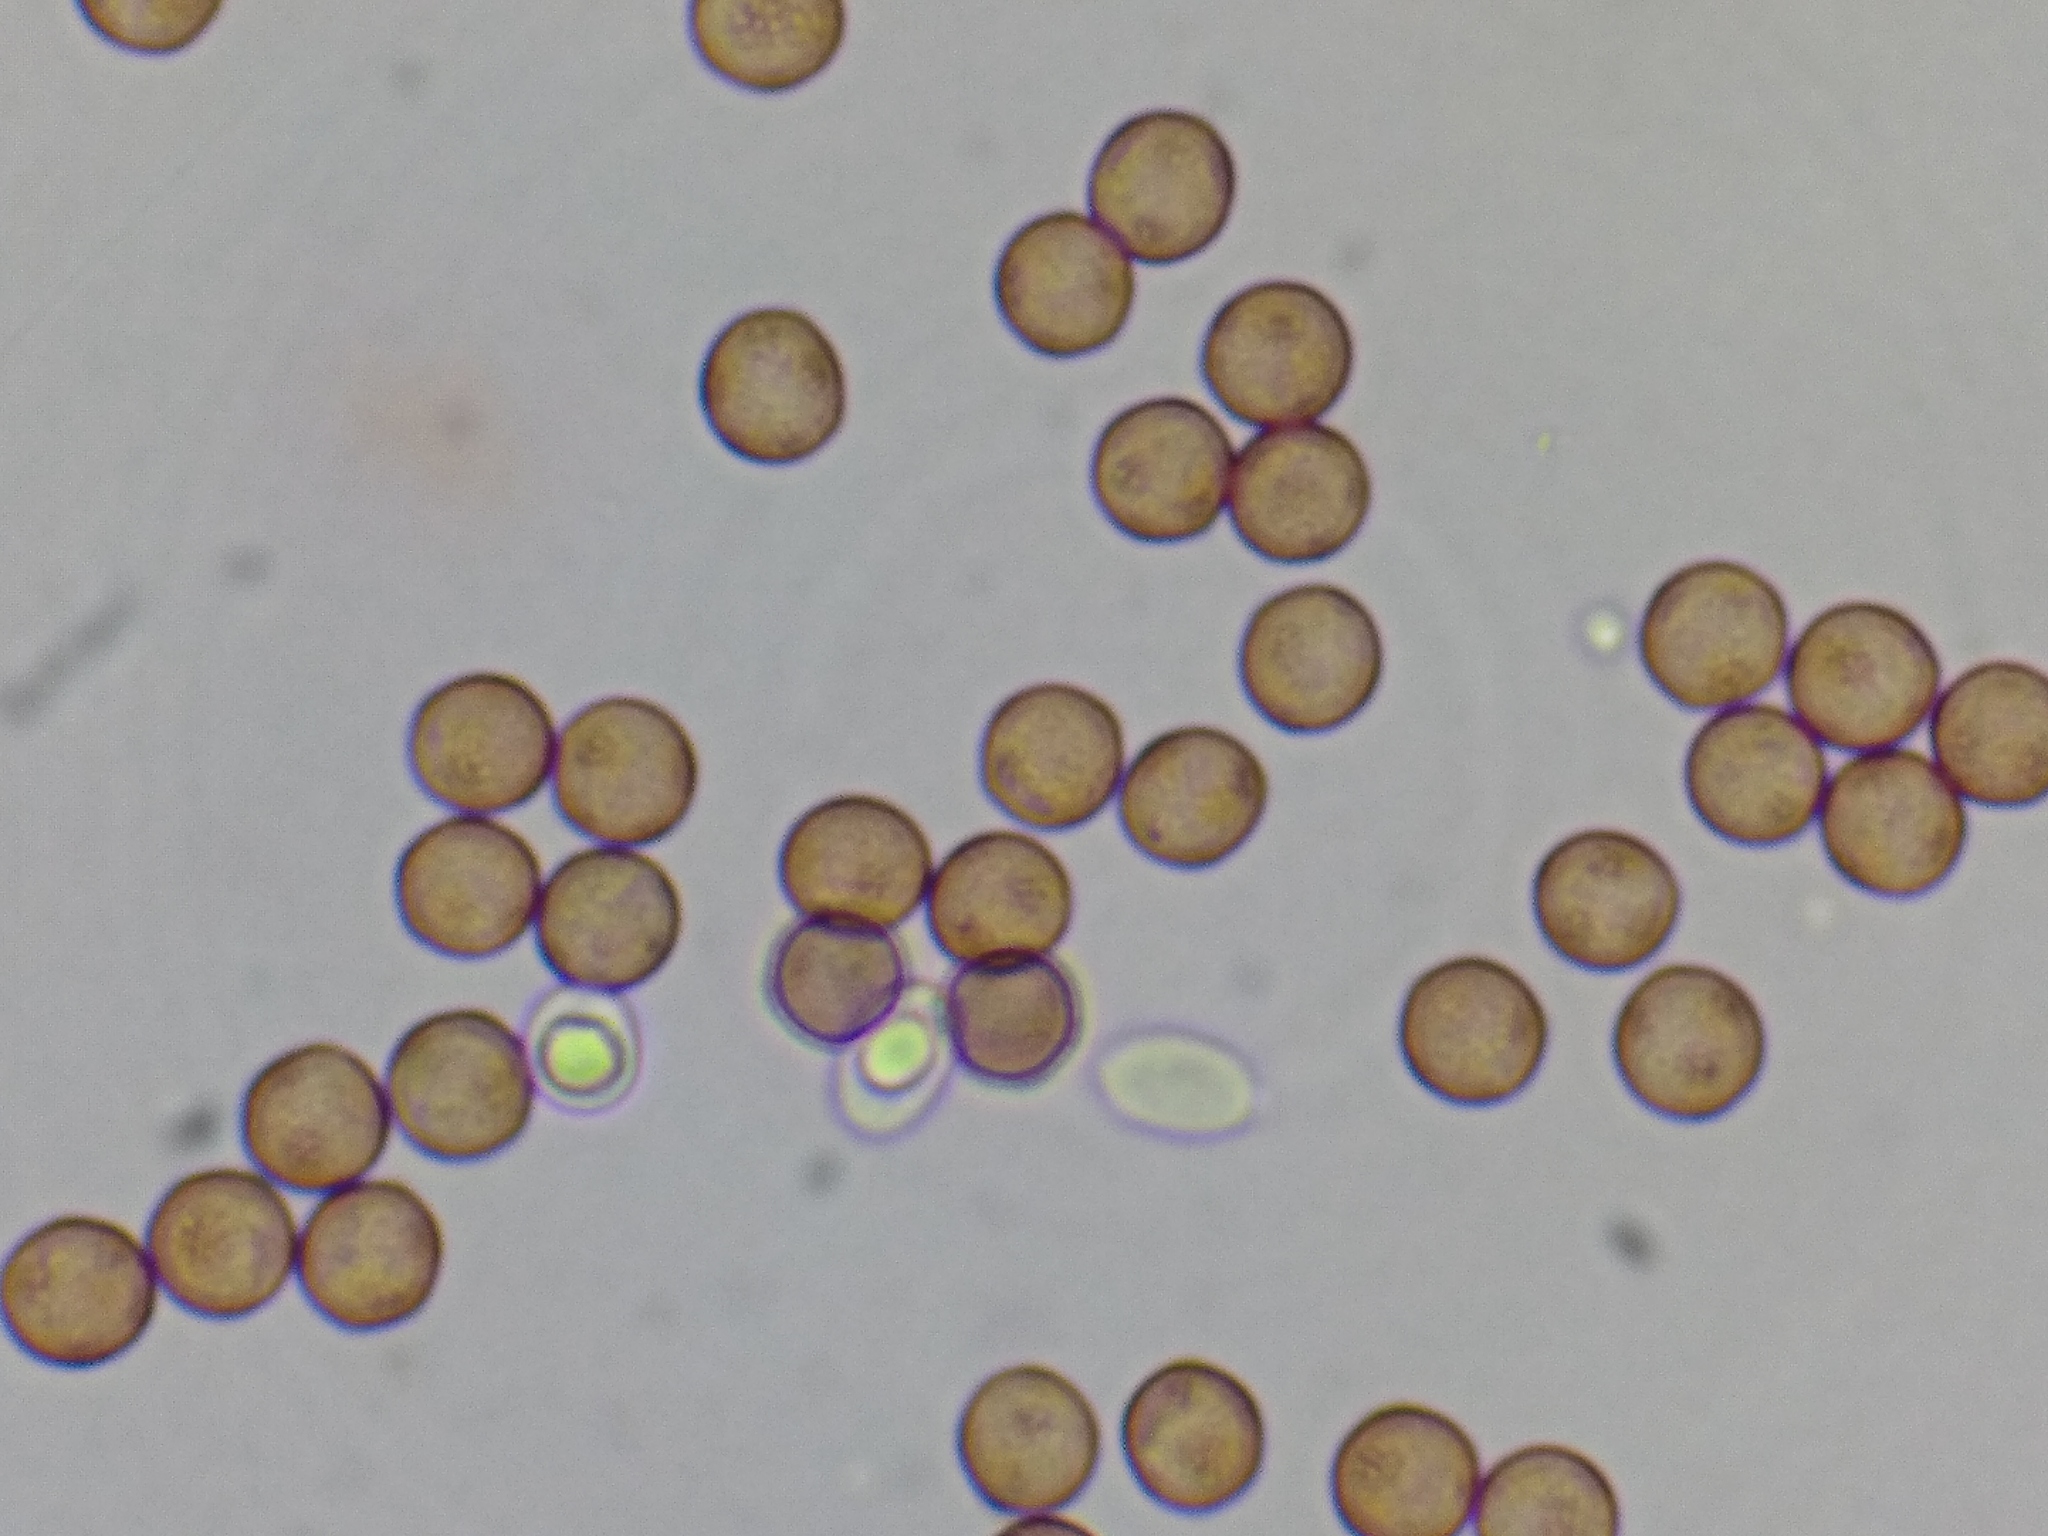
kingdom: Protozoa
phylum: Mycetozoa
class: Myxomycetes
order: Physarales
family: Physaraceae
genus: Physarum
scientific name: Physarum viride
